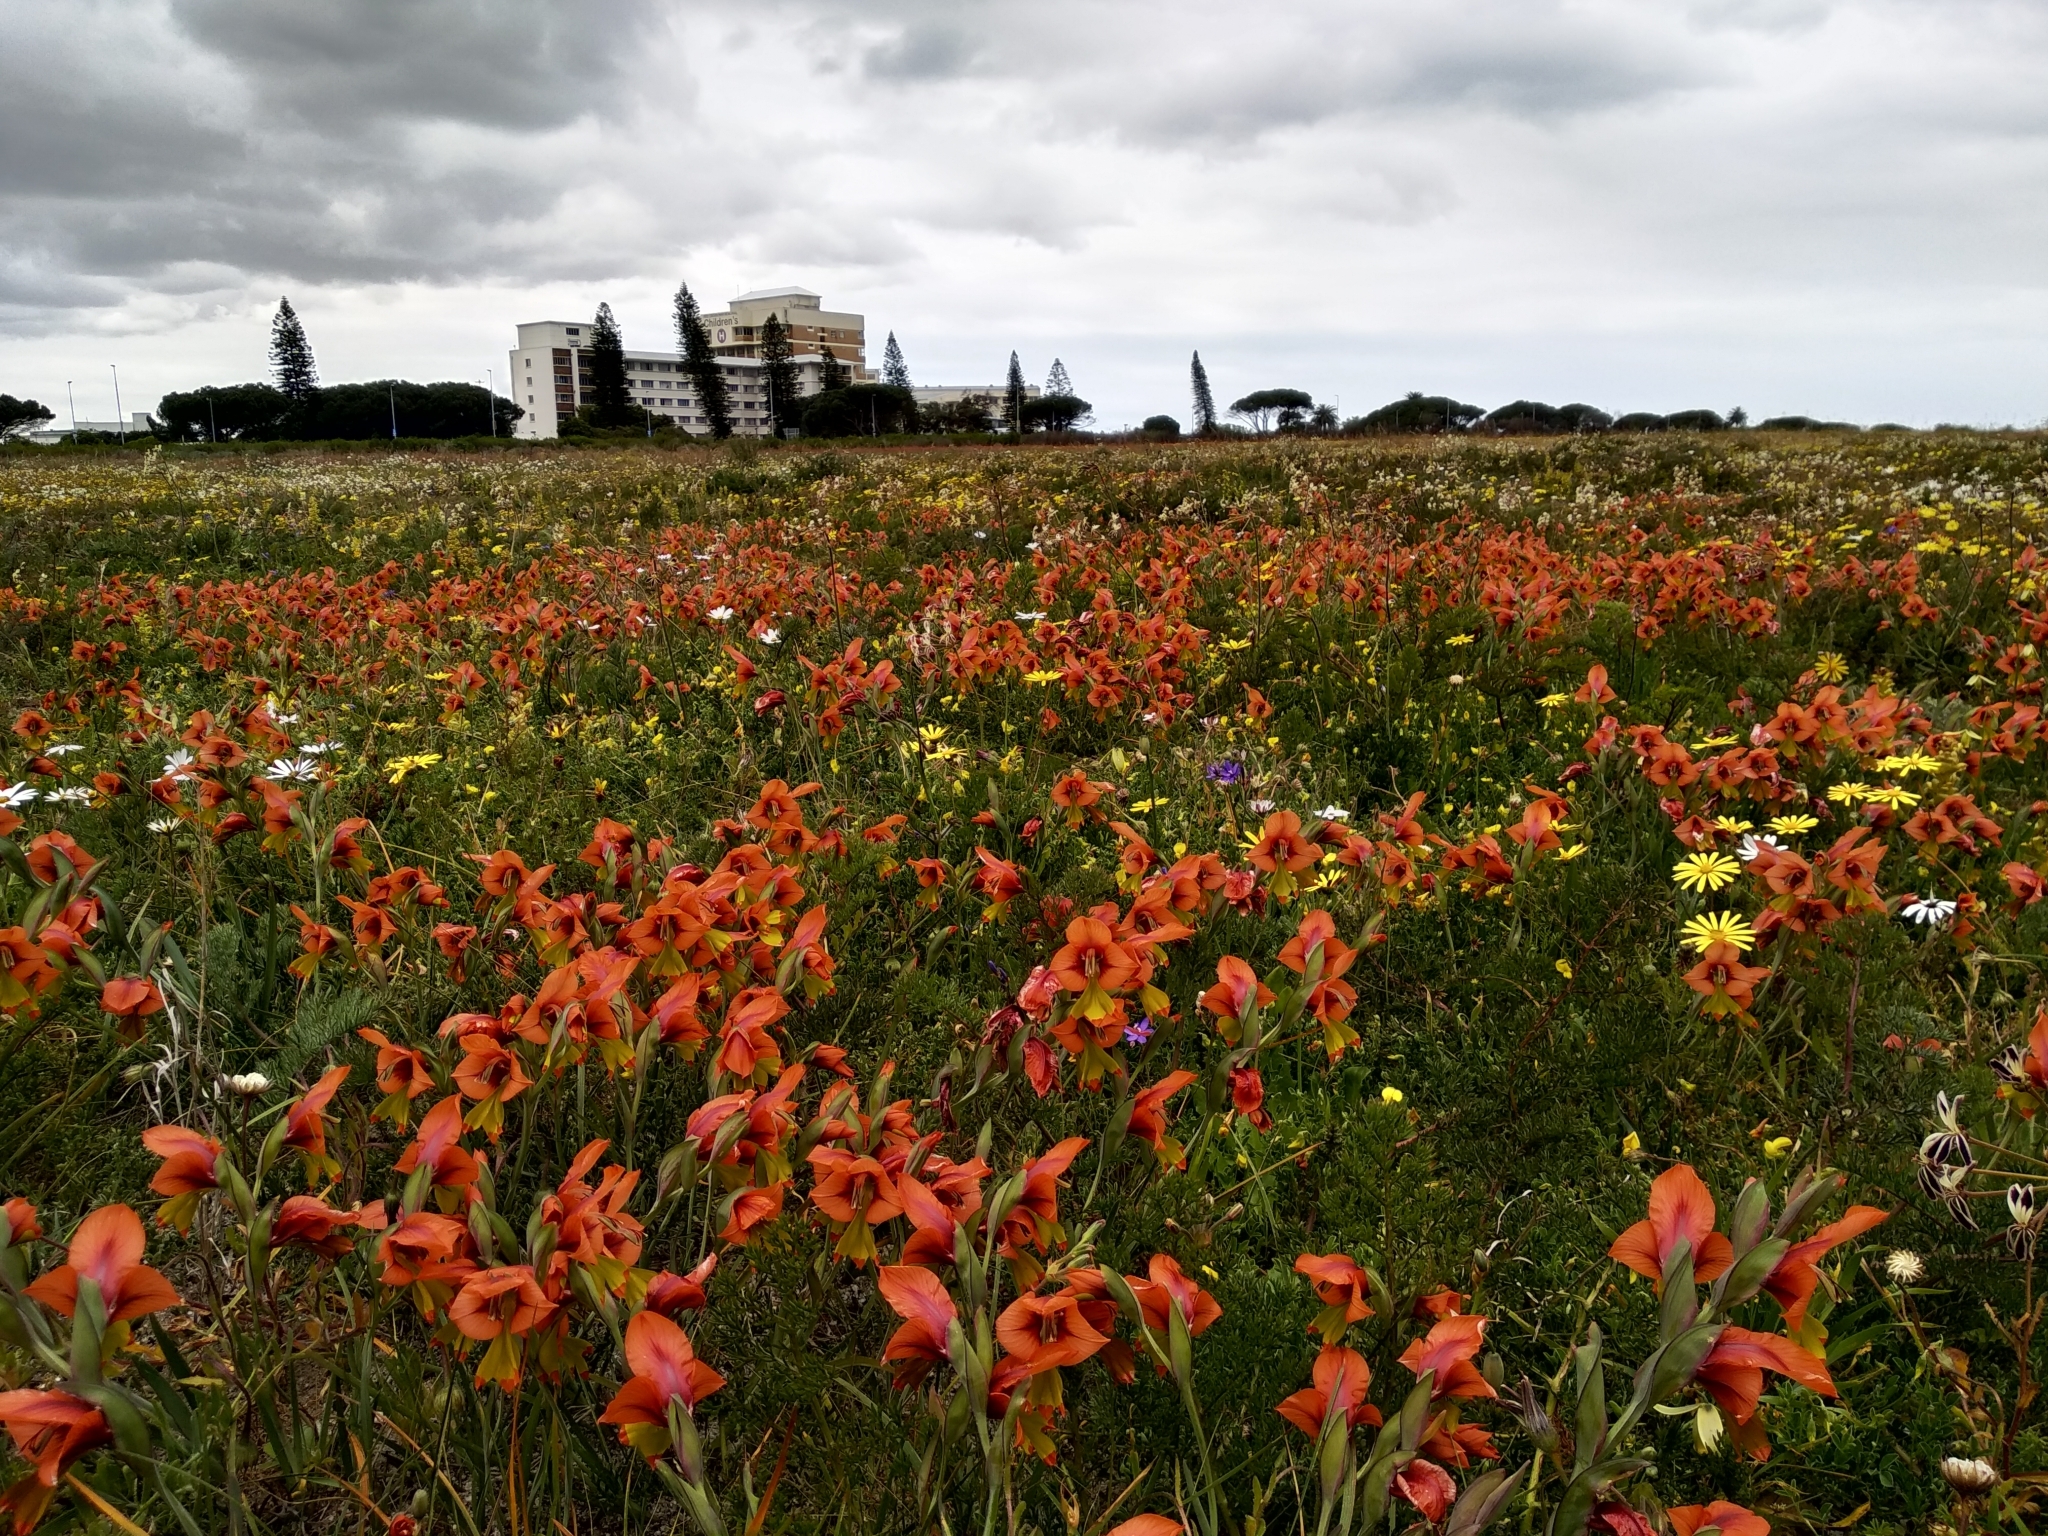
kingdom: Plantae
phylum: Tracheophyta
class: Liliopsida
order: Asparagales
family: Iridaceae
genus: Gladiolus
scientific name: Gladiolus alatus
